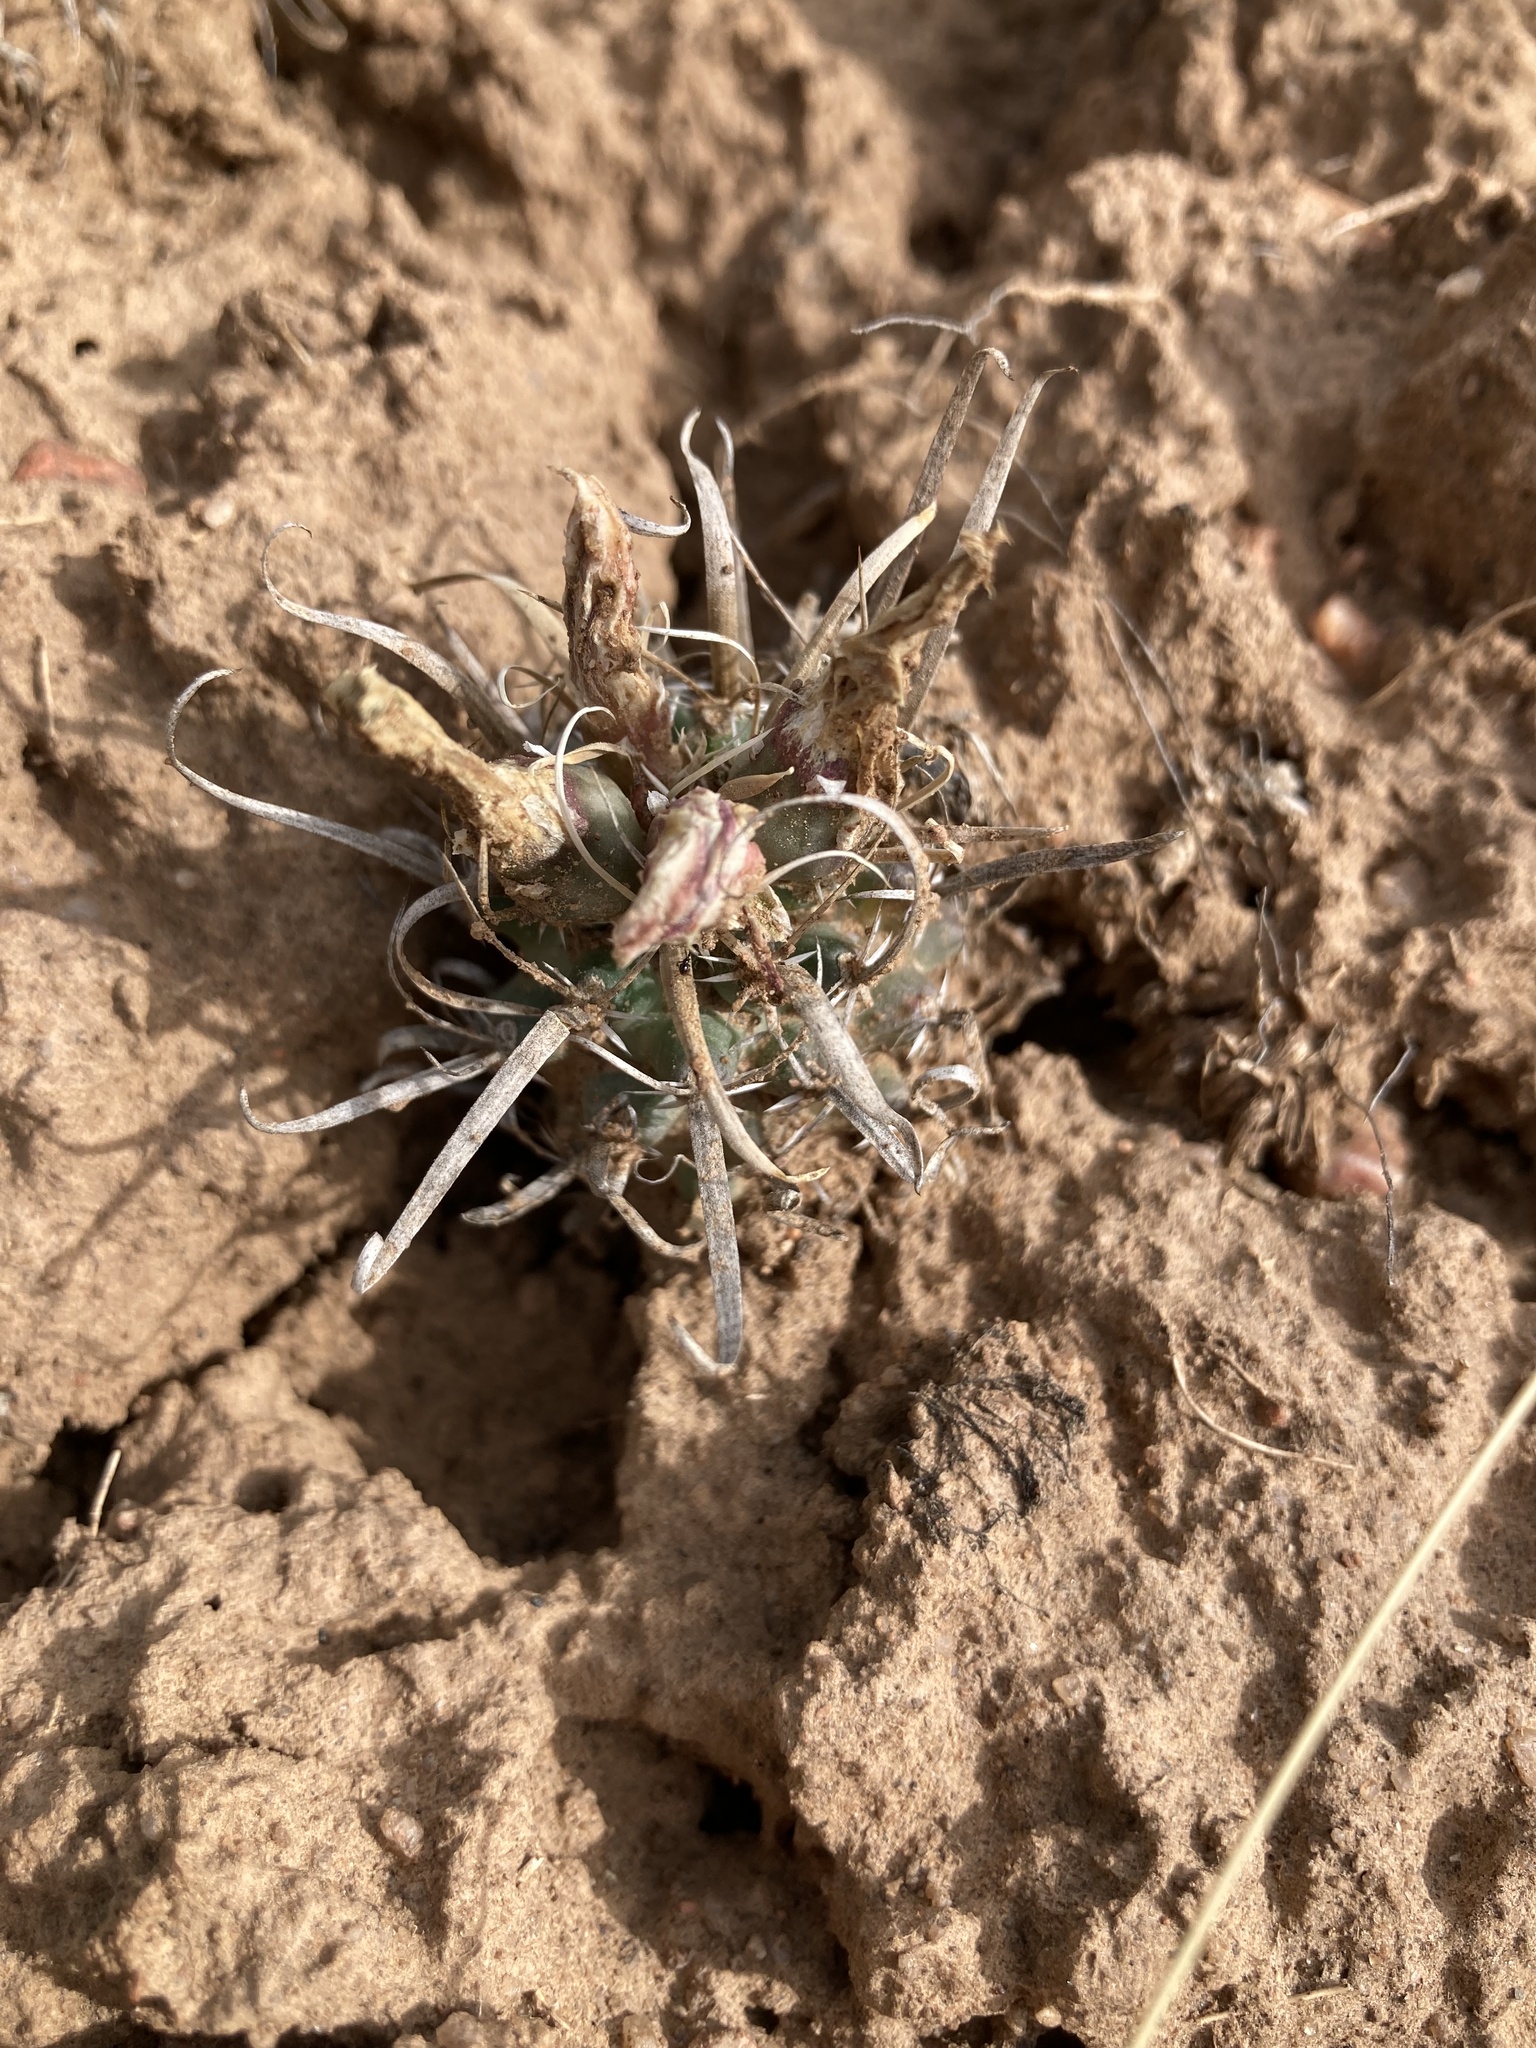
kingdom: Plantae
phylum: Tracheophyta
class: Magnoliopsida
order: Caryophyllales
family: Cactaceae
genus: Sclerocactus
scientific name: Sclerocactus papyracanthus
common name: Grama grass cactus
